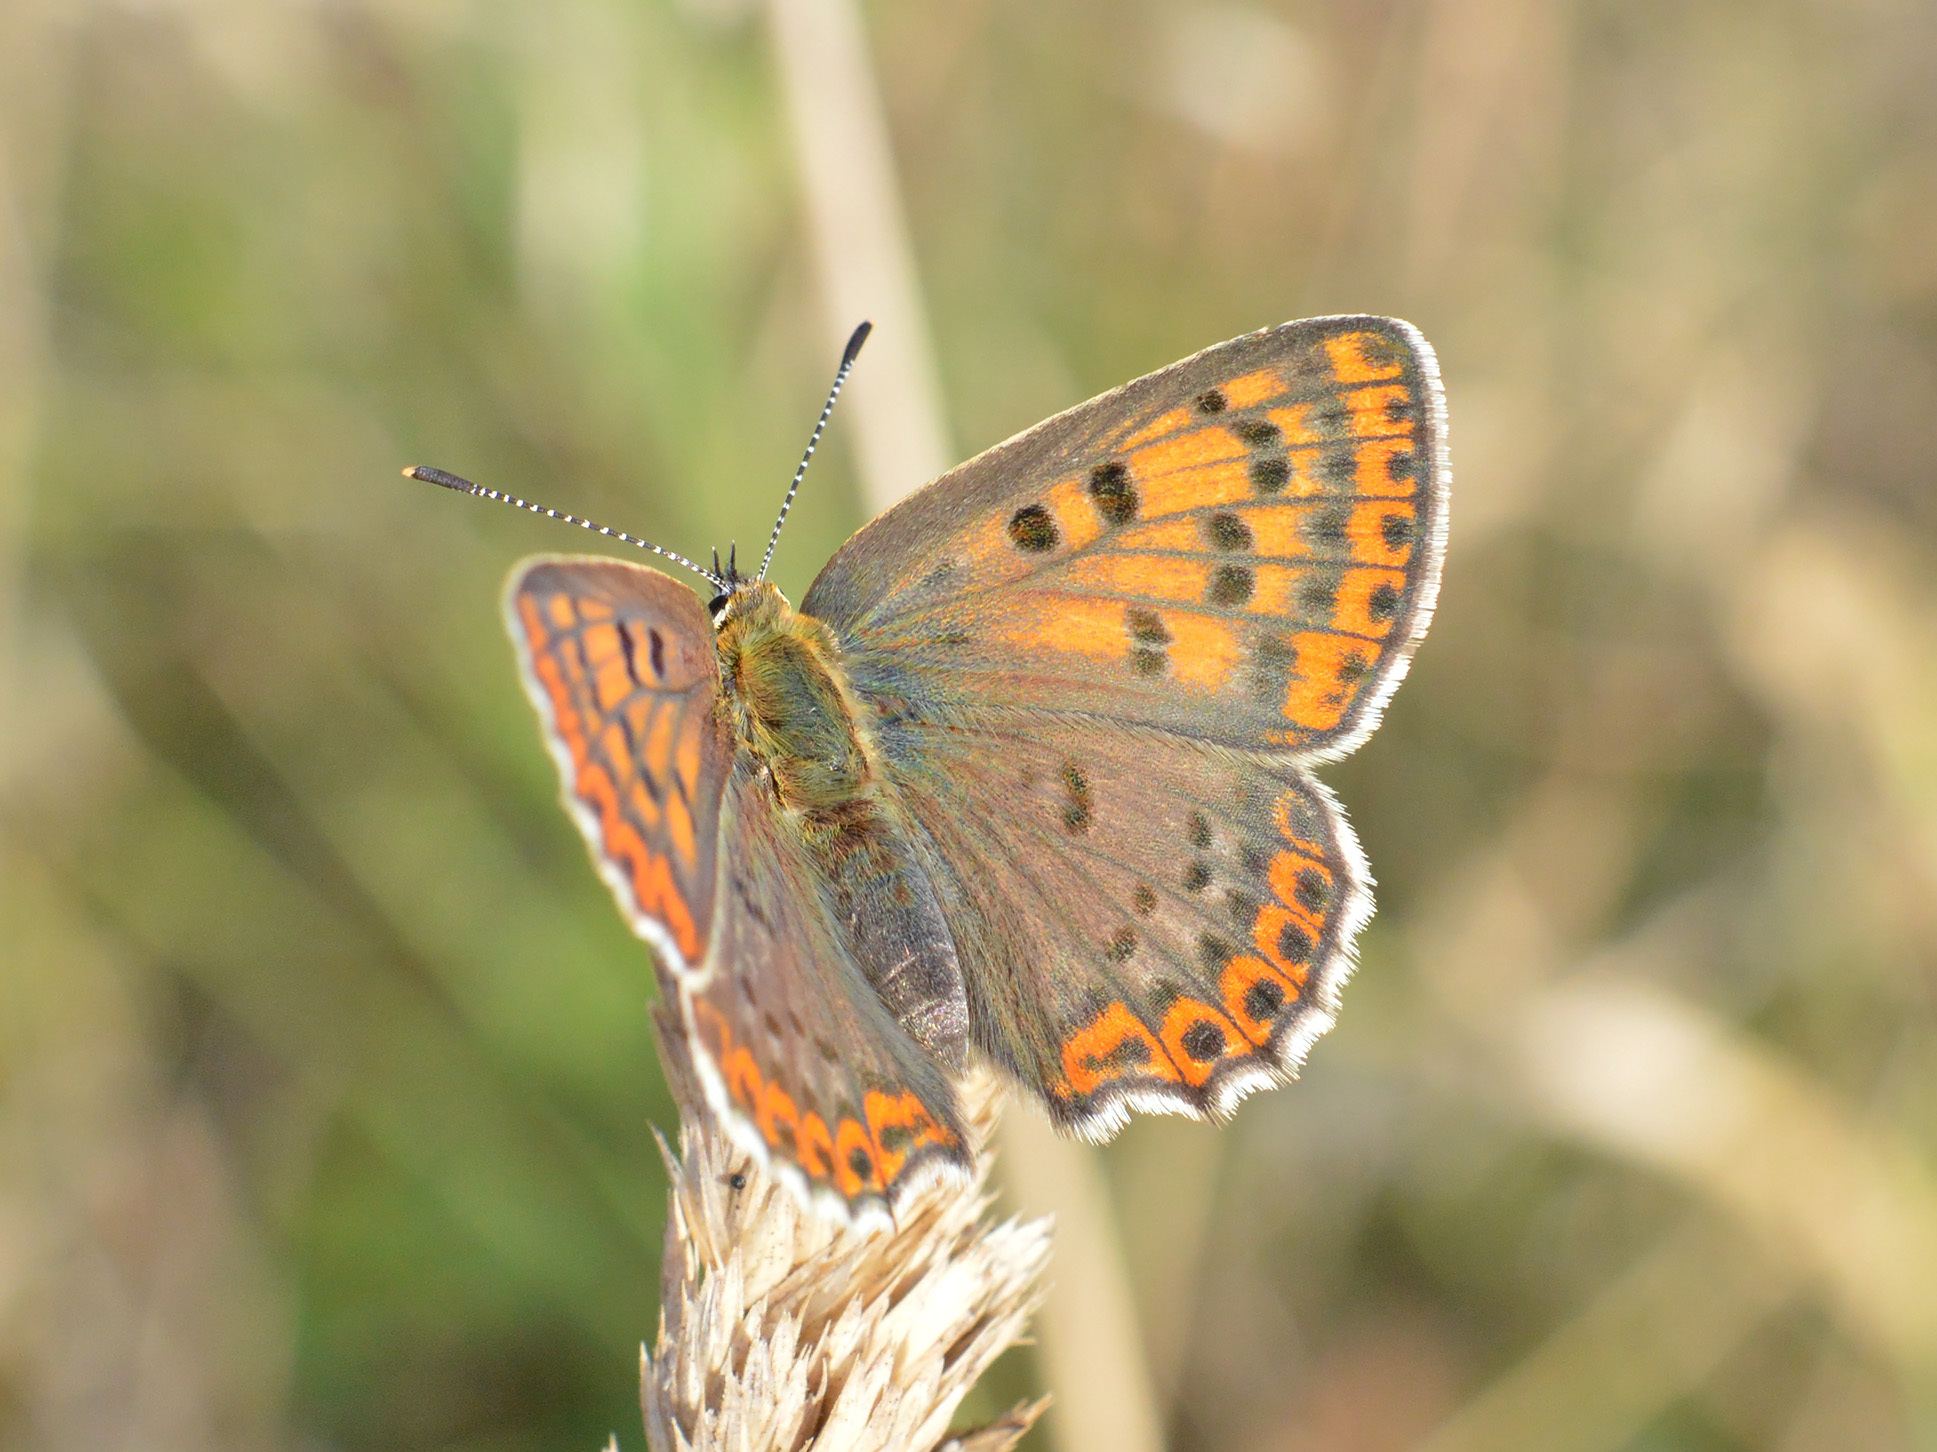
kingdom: Animalia
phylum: Arthropoda
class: Insecta
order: Lepidoptera
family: Lycaenidae
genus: Loweia
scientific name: Loweia tityrus
